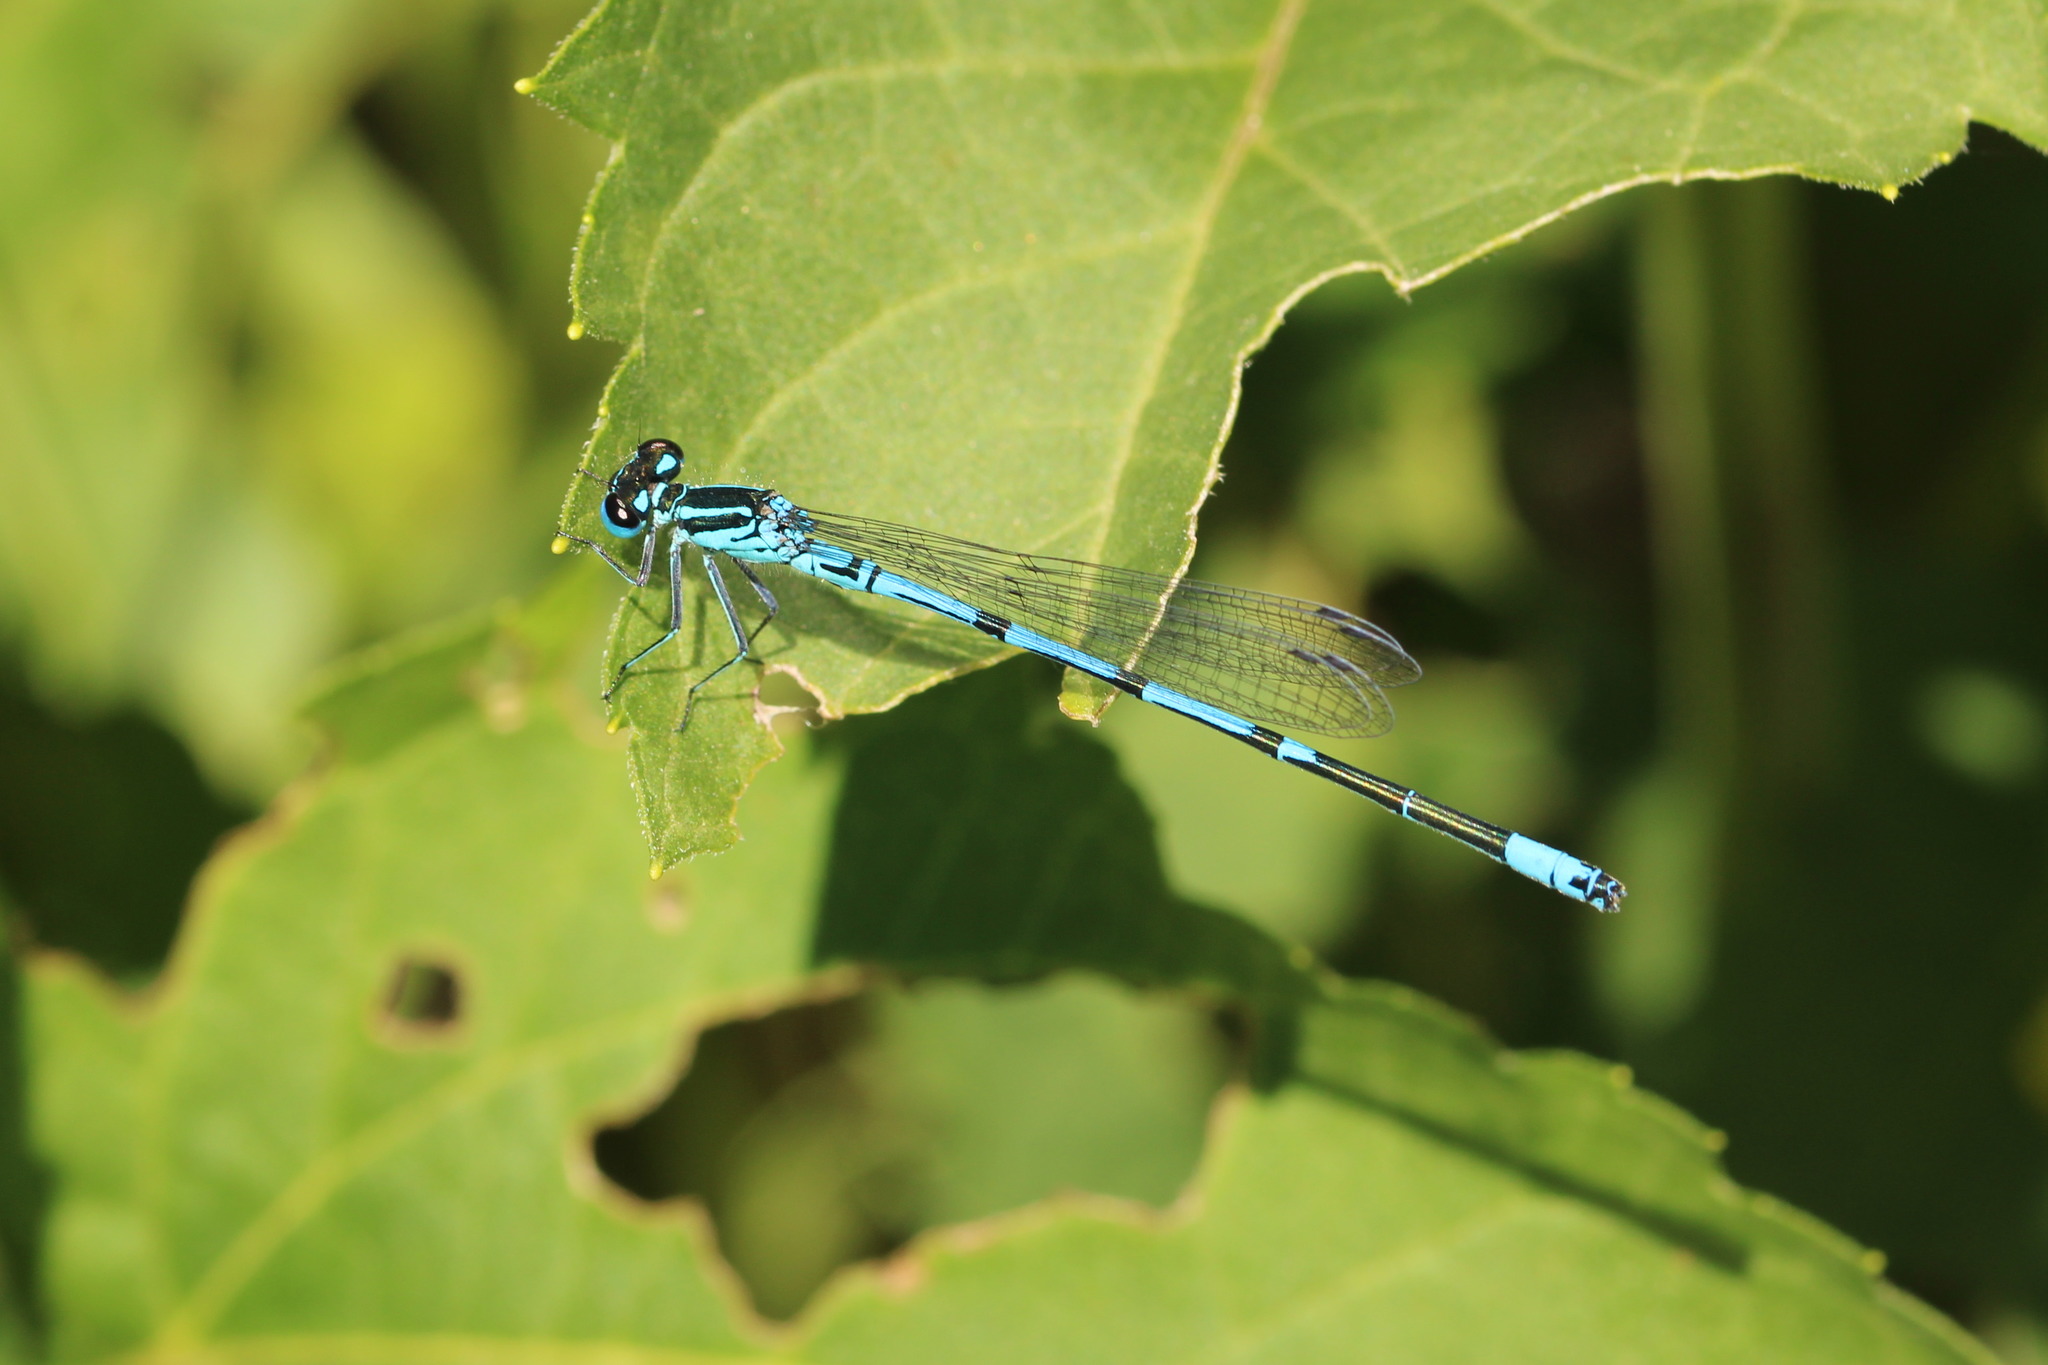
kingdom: Animalia
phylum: Arthropoda
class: Insecta
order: Odonata
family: Coenagrionidae
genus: Coenagrion
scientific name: Coenagrion puella
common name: Azure damselfly
